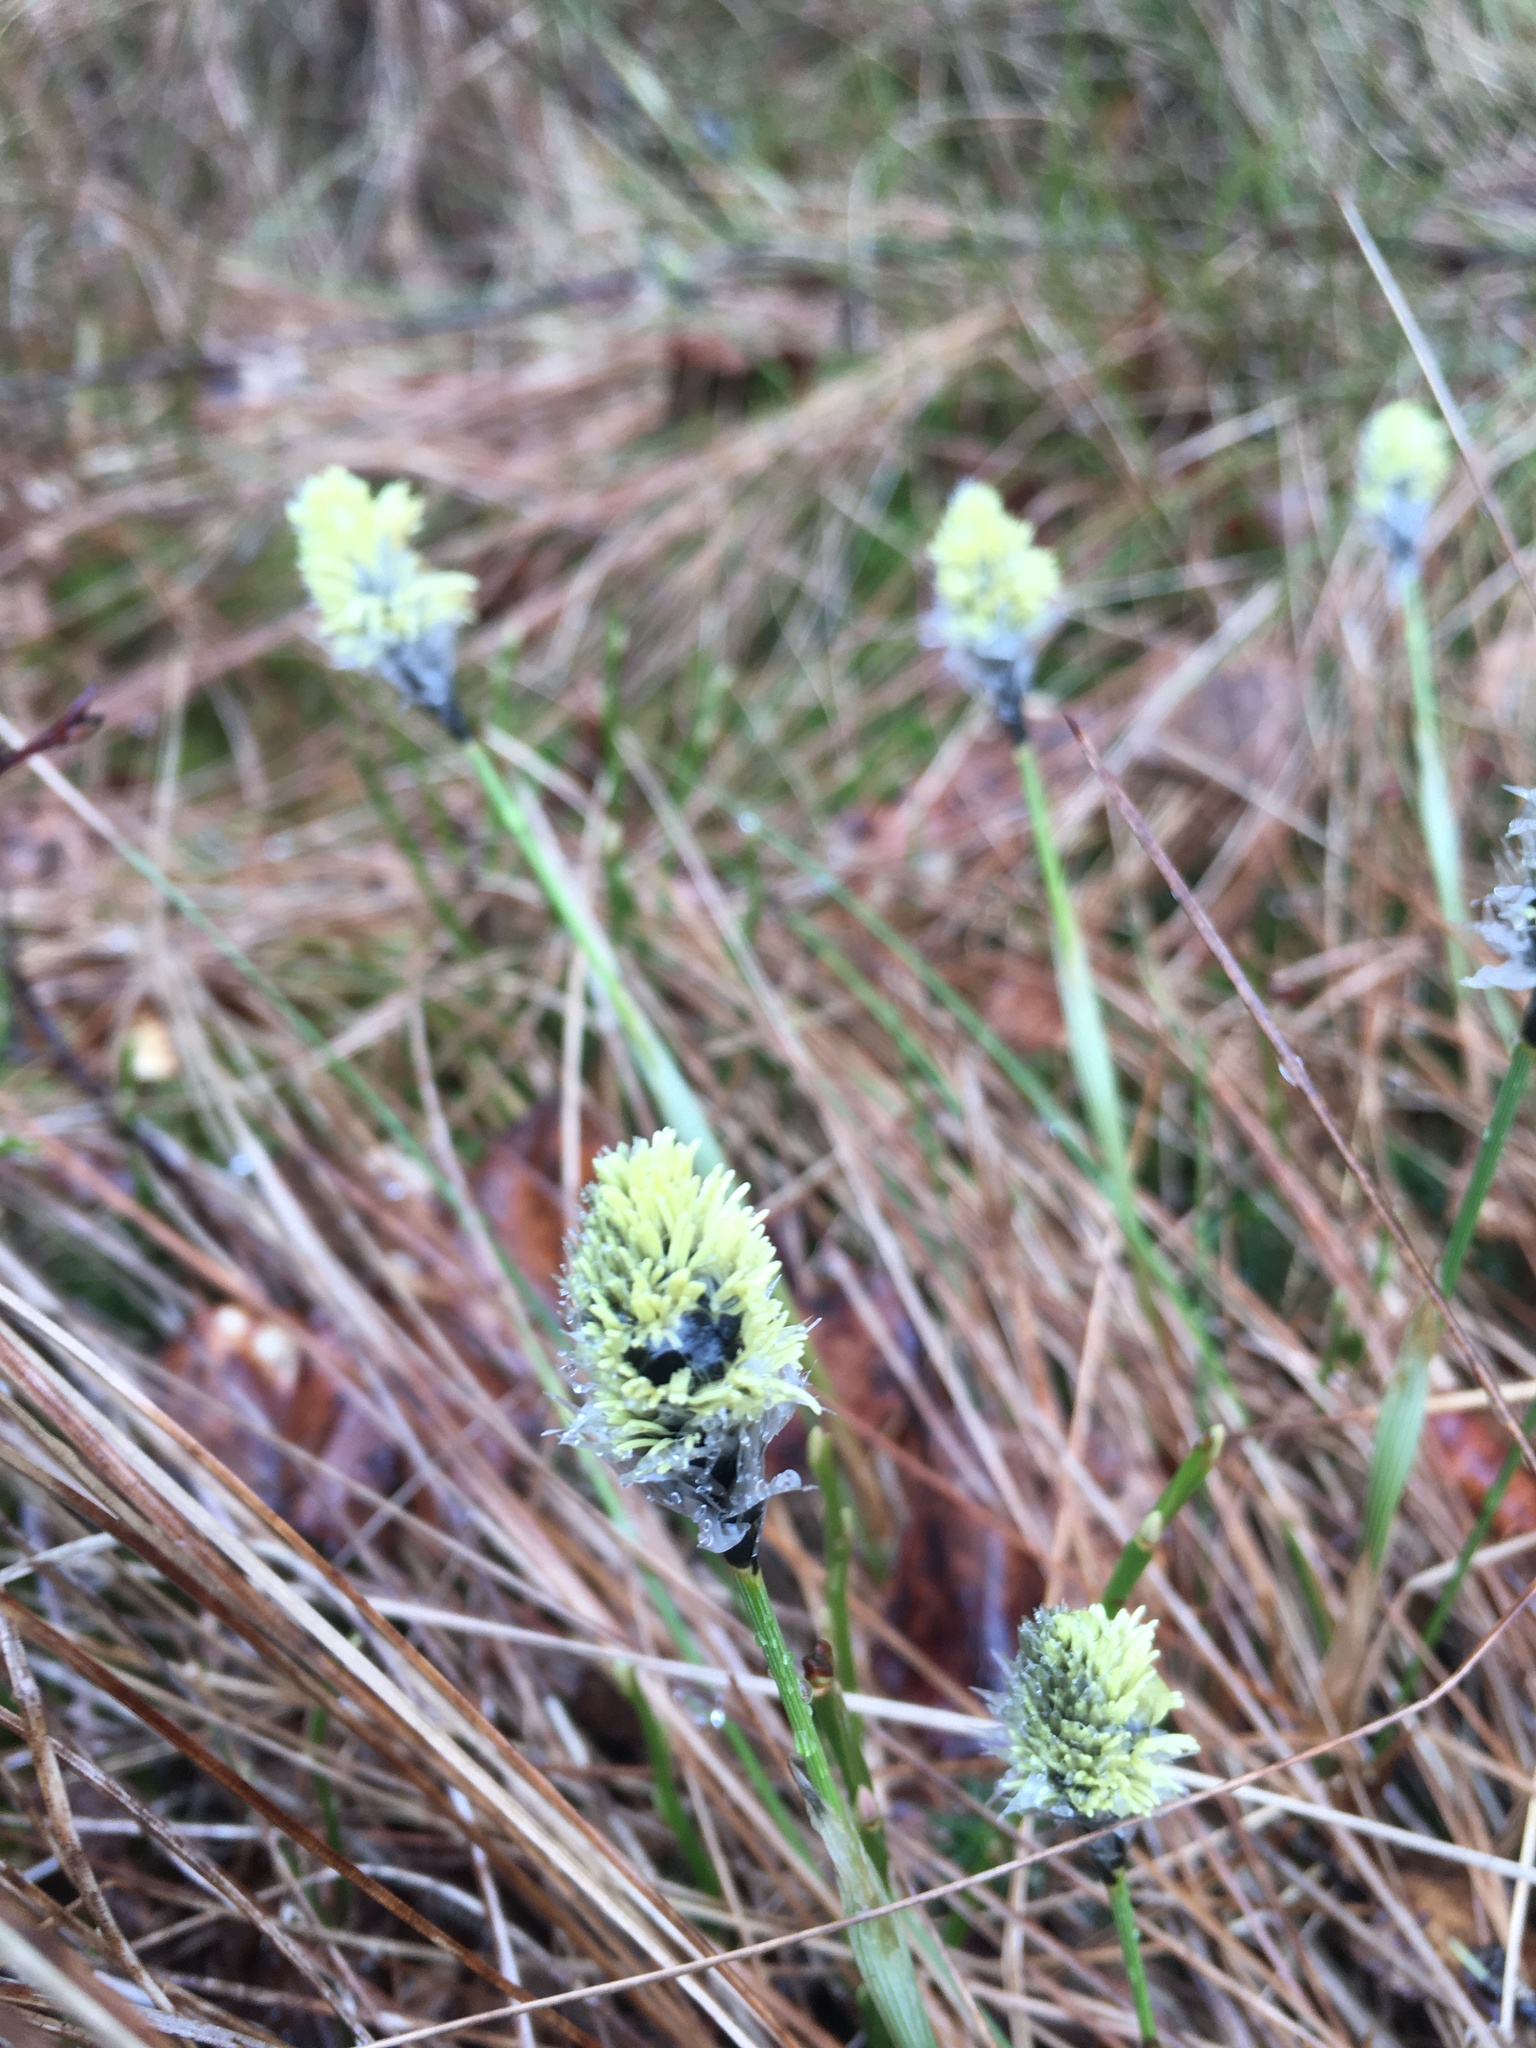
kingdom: Plantae
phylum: Tracheophyta
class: Liliopsida
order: Poales
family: Cyperaceae
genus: Eriophorum
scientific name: Eriophorum vaginatum
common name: Hare's-tail cottongrass
